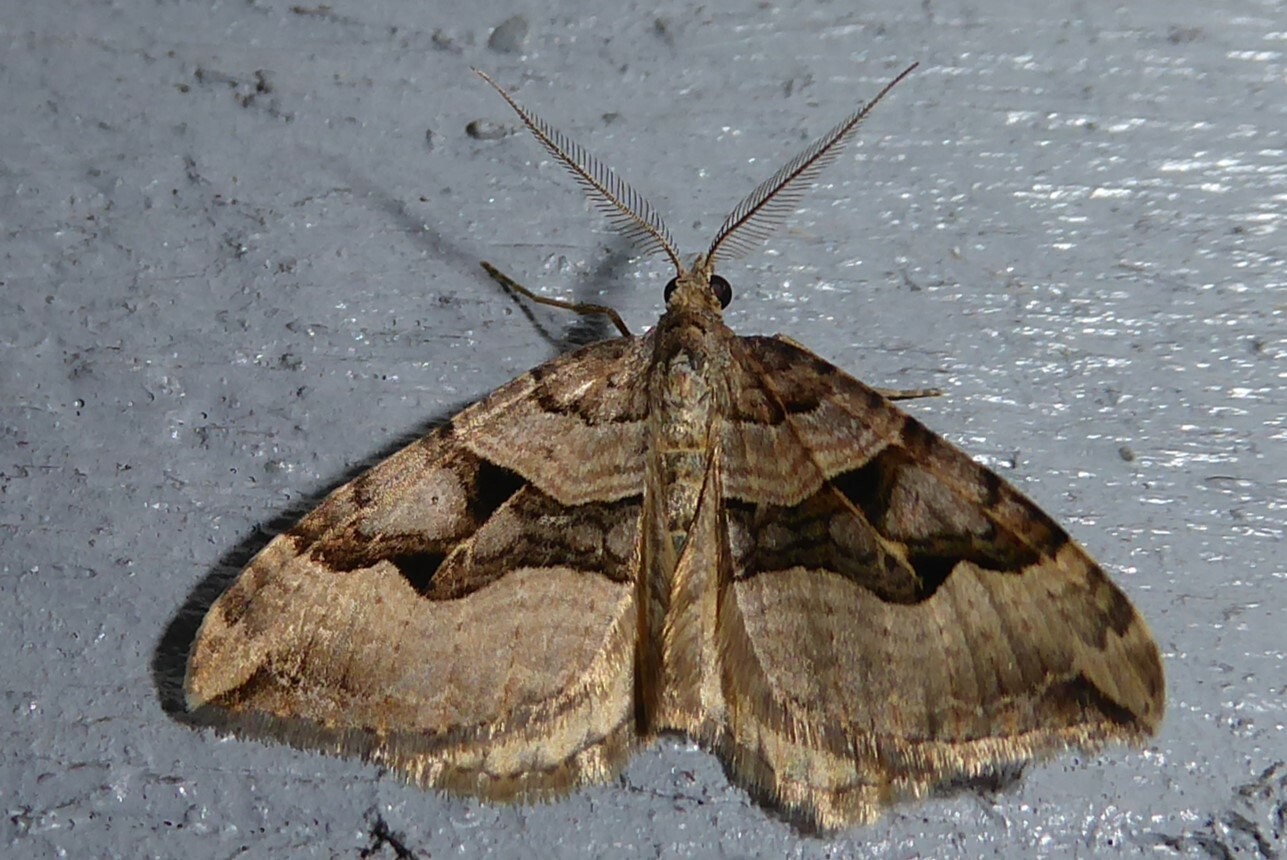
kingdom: Animalia
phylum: Arthropoda
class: Insecta
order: Lepidoptera
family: Geometridae
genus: Xanthorhoe
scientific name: Xanthorhoe semifissata
